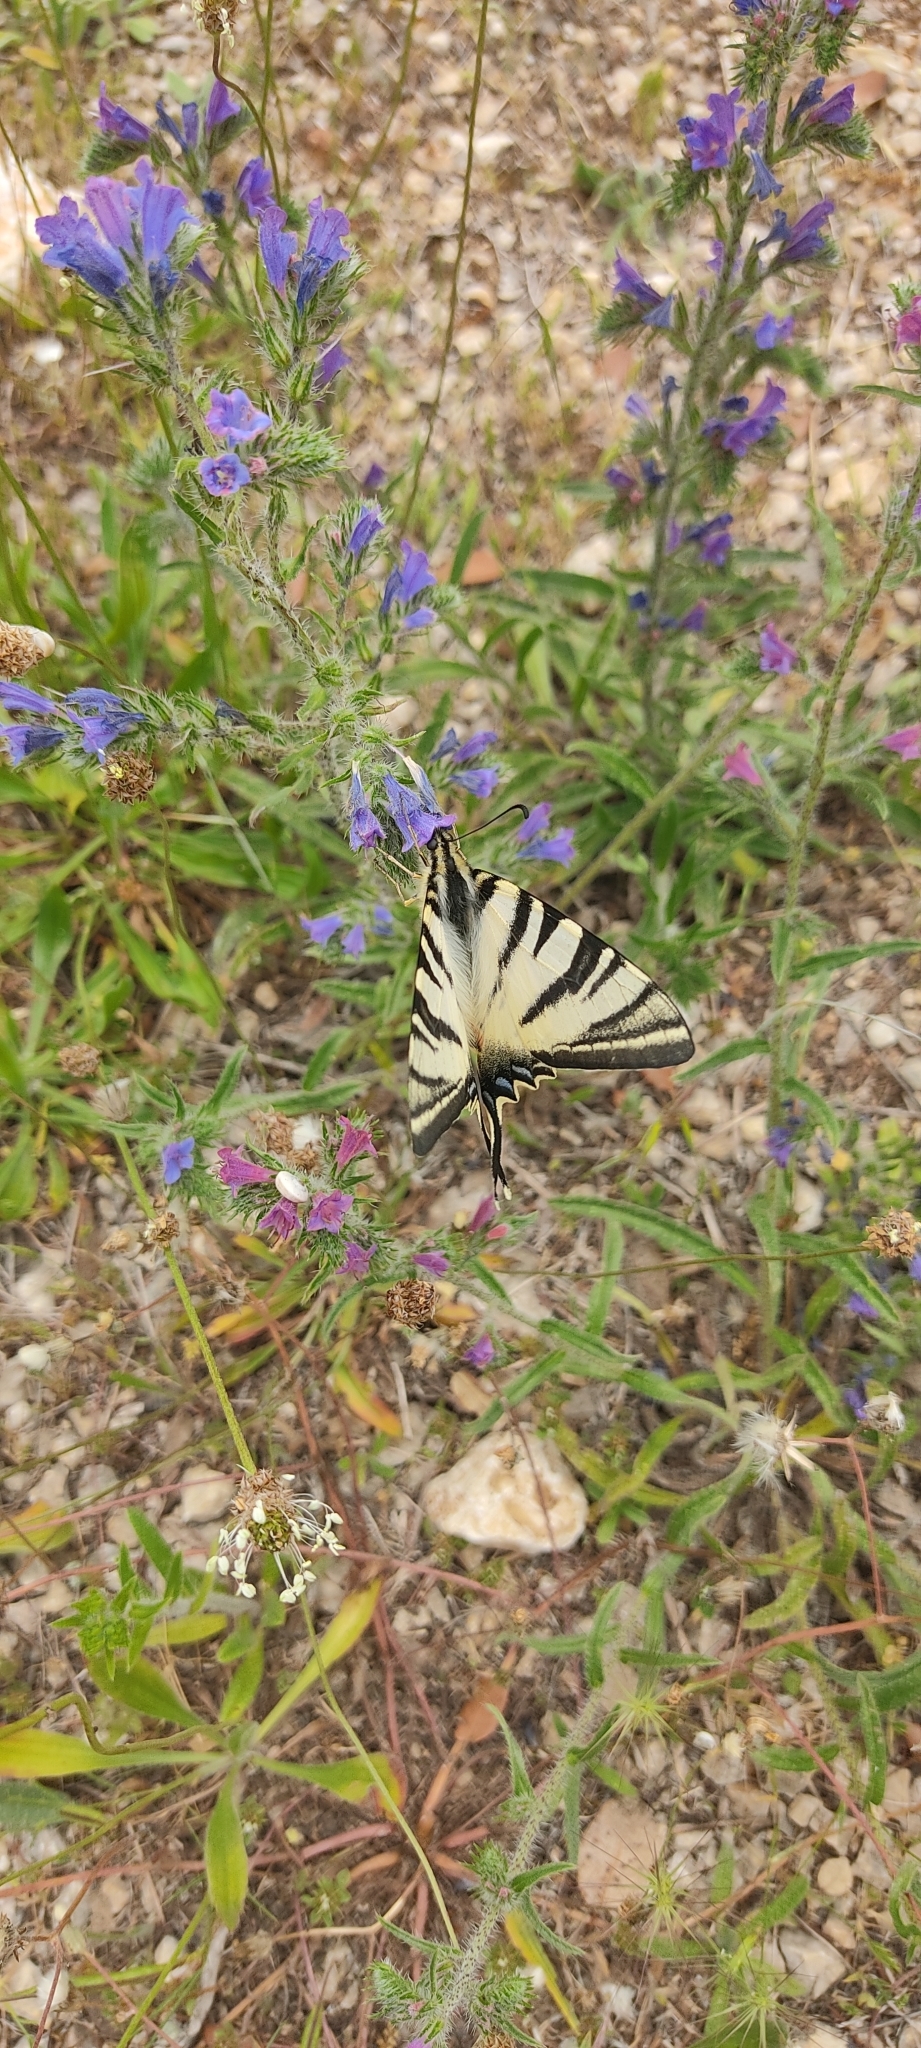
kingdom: Animalia
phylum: Arthropoda
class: Insecta
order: Lepidoptera
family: Papilionidae
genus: Iphiclides
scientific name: Iphiclides podalirius
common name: Scarce swallowtail
